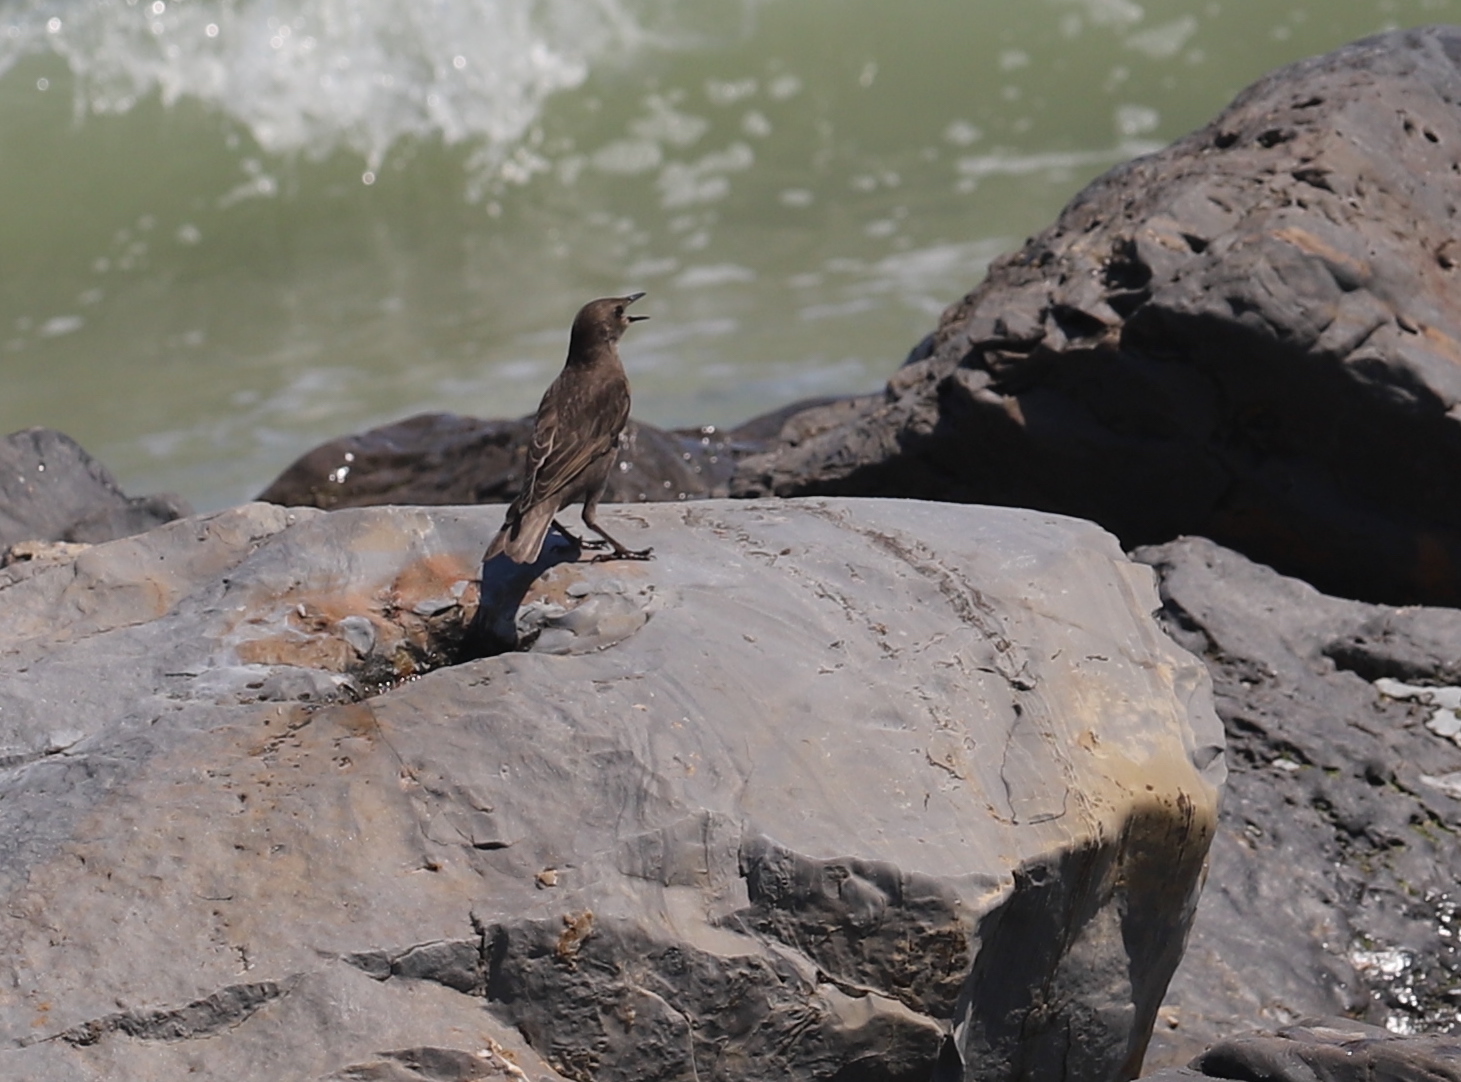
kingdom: Animalia
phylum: Chordata
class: Aves
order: Passeriformes
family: Sturnidae
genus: Sturnus
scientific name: Sturnus vulgaris
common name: Common starling
